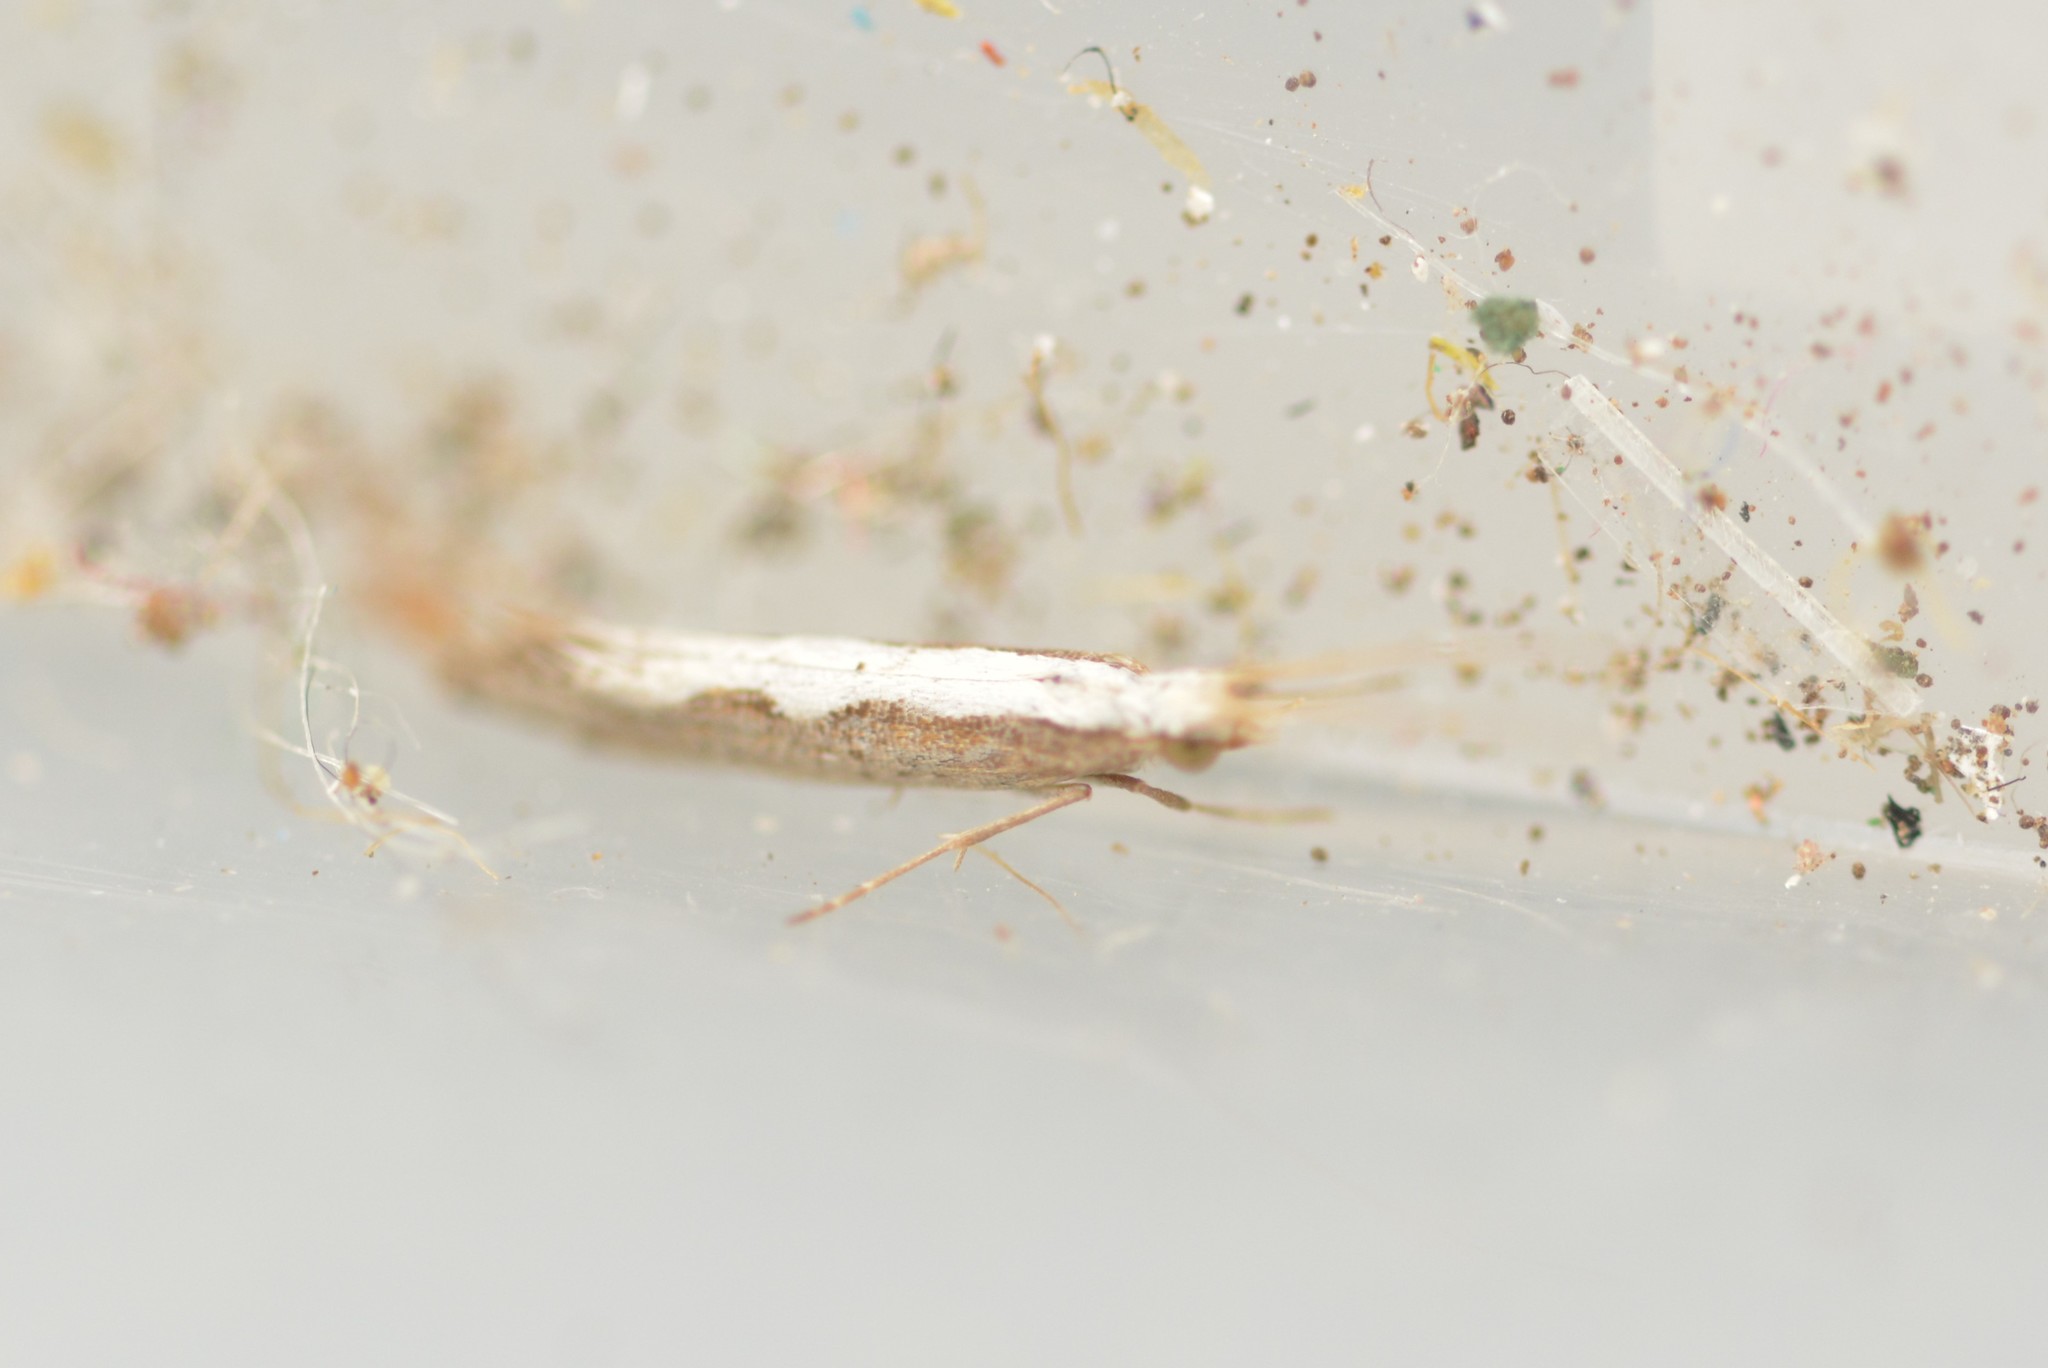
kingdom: Animalia
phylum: Arthropoda
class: Insecta
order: Lepidoptera
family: Plutellidae
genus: Plutella
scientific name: Plutella xylostella
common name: Diamond-back moth
